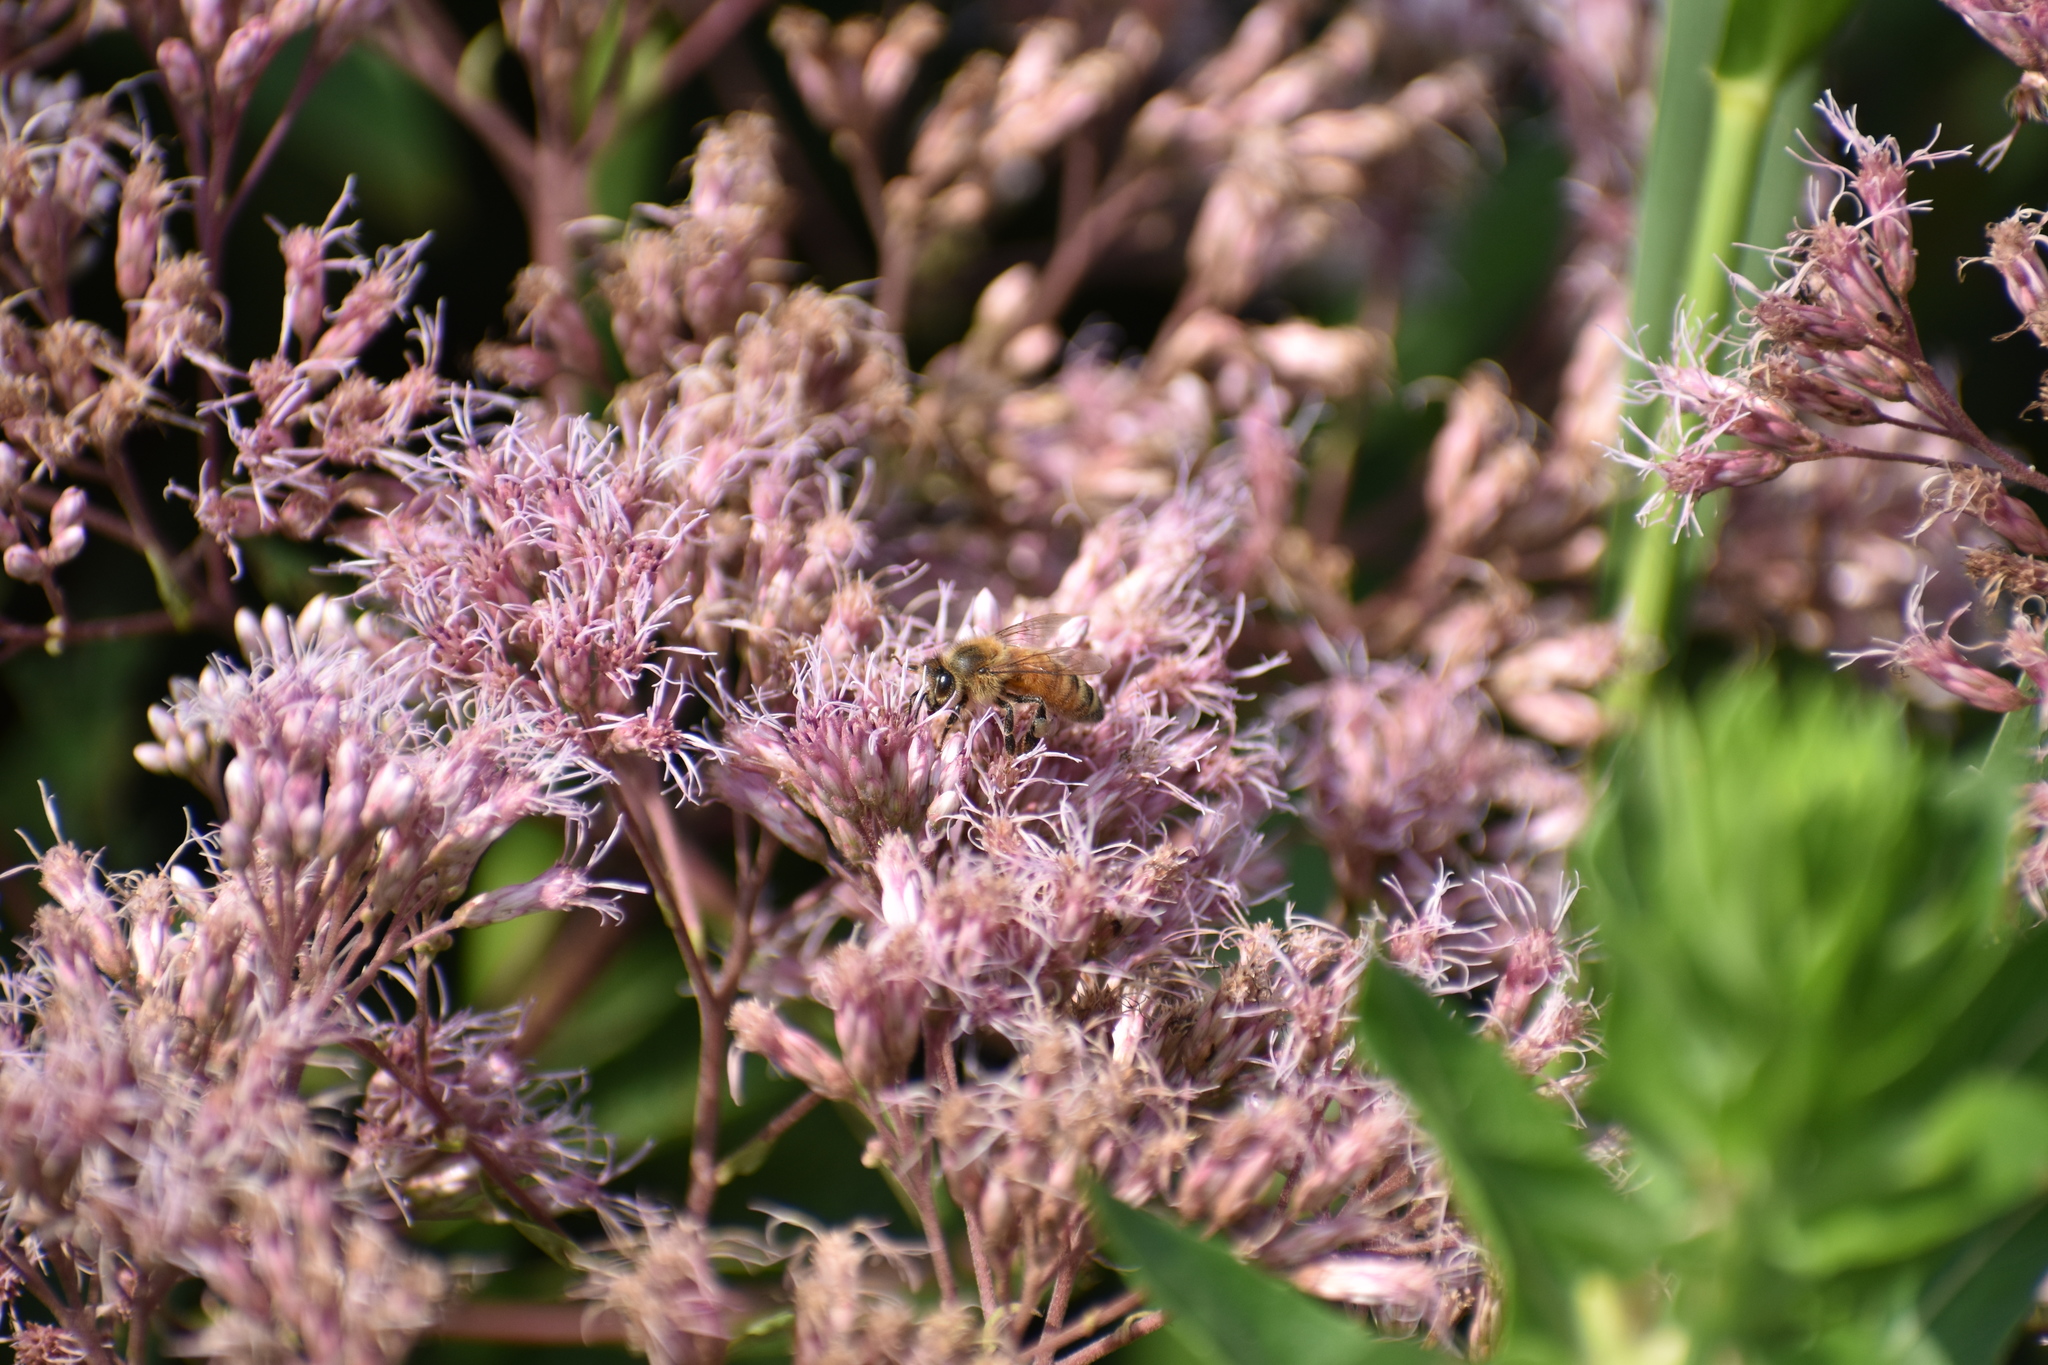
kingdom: Animalia
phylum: Arthropoda
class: Insecta
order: Hymenoptera
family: Apidae
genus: Apis
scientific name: Apis mellifera
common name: Honey bee
